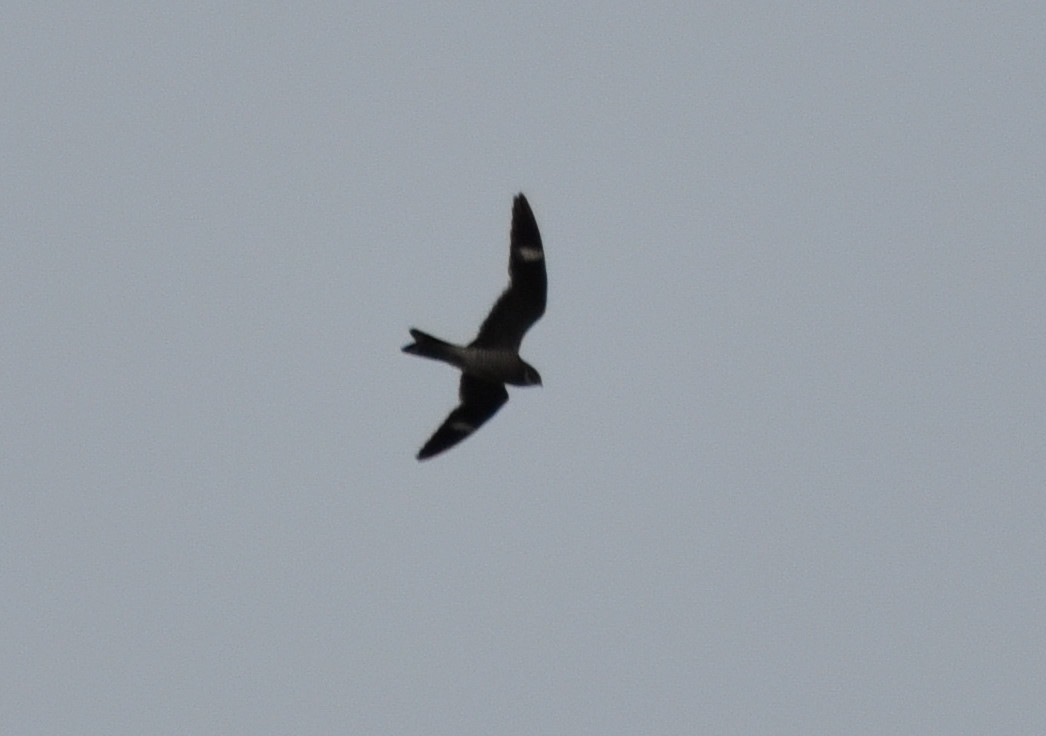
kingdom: Animalia
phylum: Chordata
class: Aves
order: Caprimulgiformes
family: Caprimulgidae
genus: Chordeiles
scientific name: Chordeiles minor
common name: Common nighthawk
